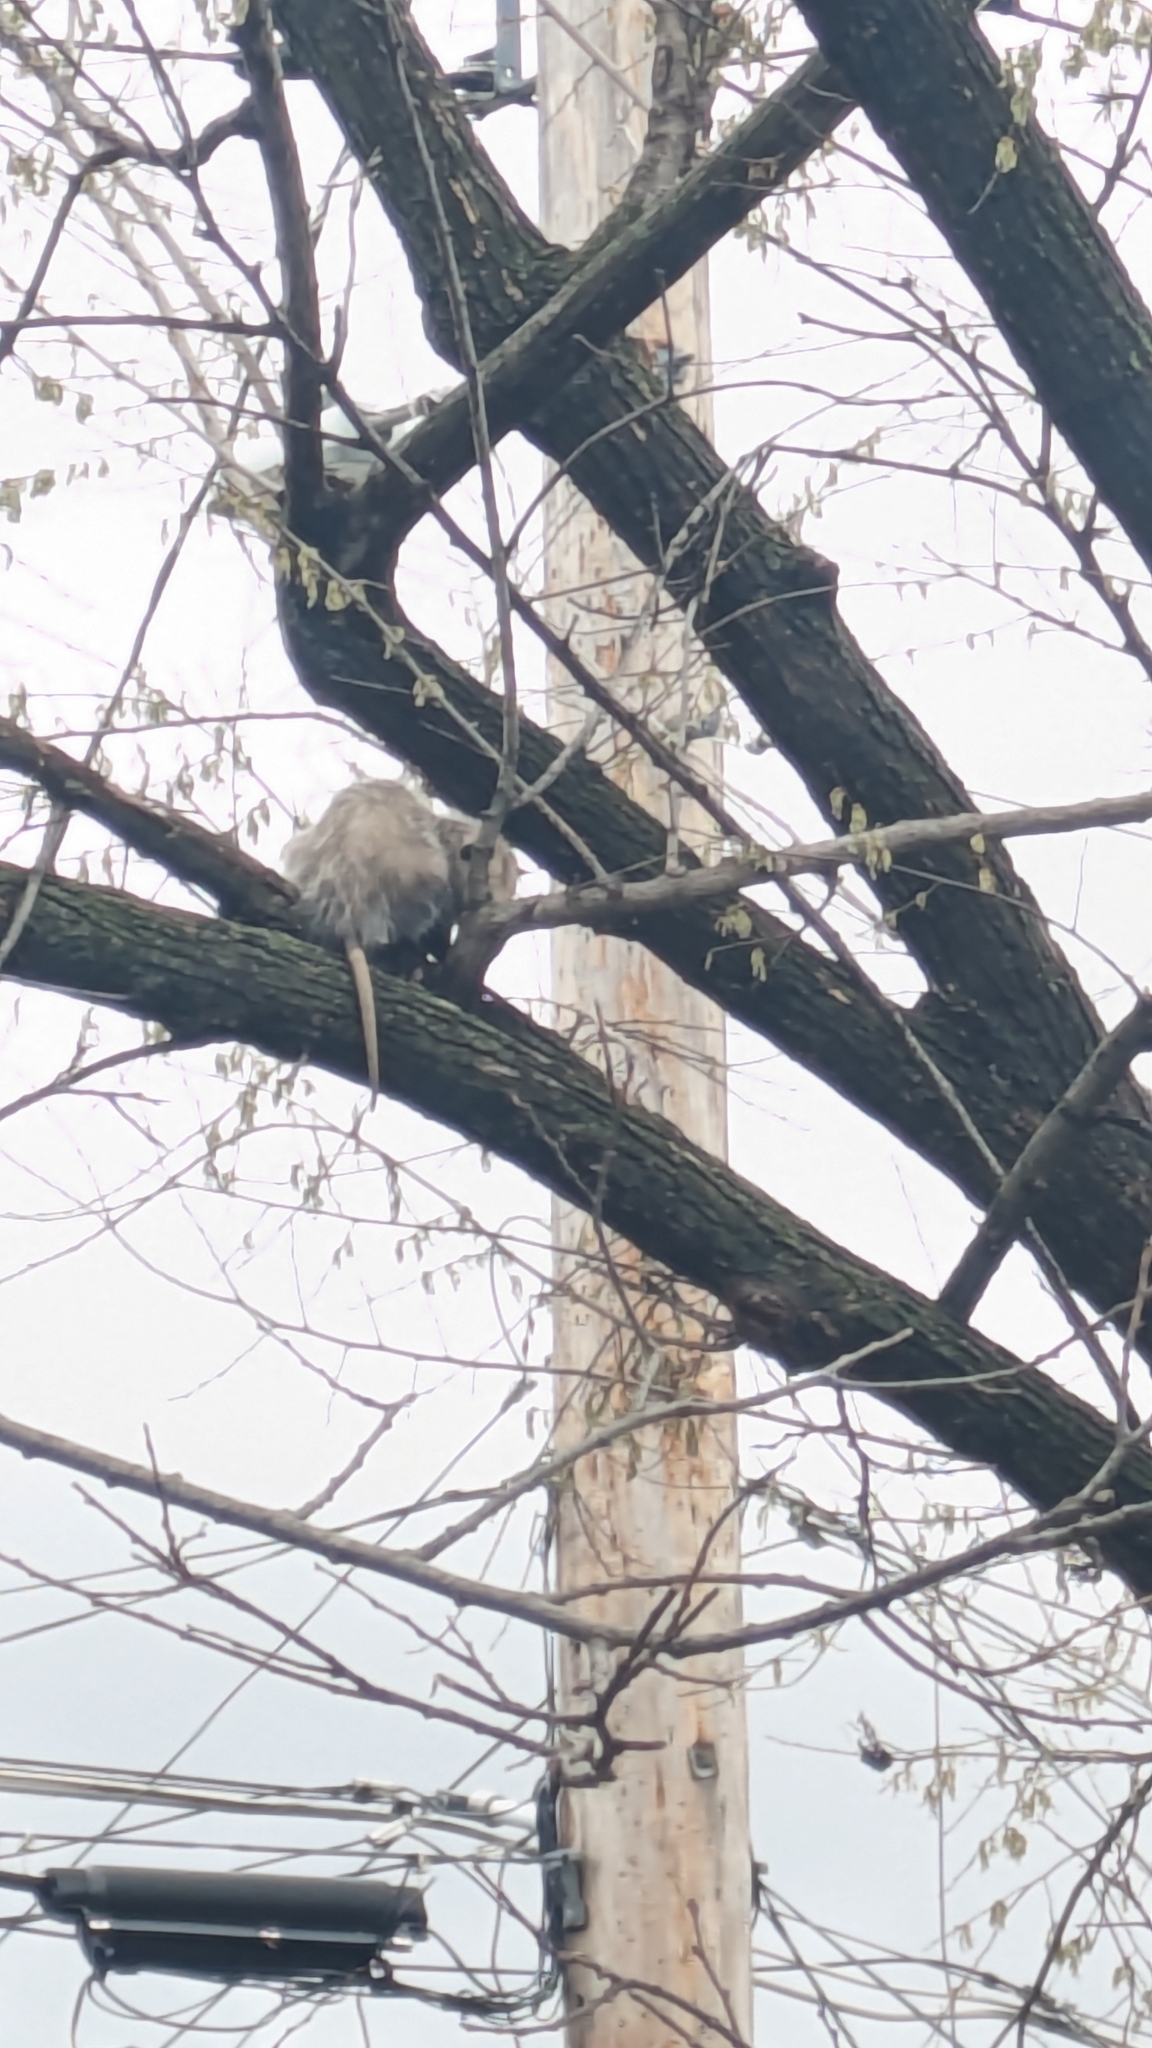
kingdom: Animalia
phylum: Chordata
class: Mammalia
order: Didelphimorphia
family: Didelphidae
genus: Didelphis
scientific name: Didelphis virginiana
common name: Virginia opossum
